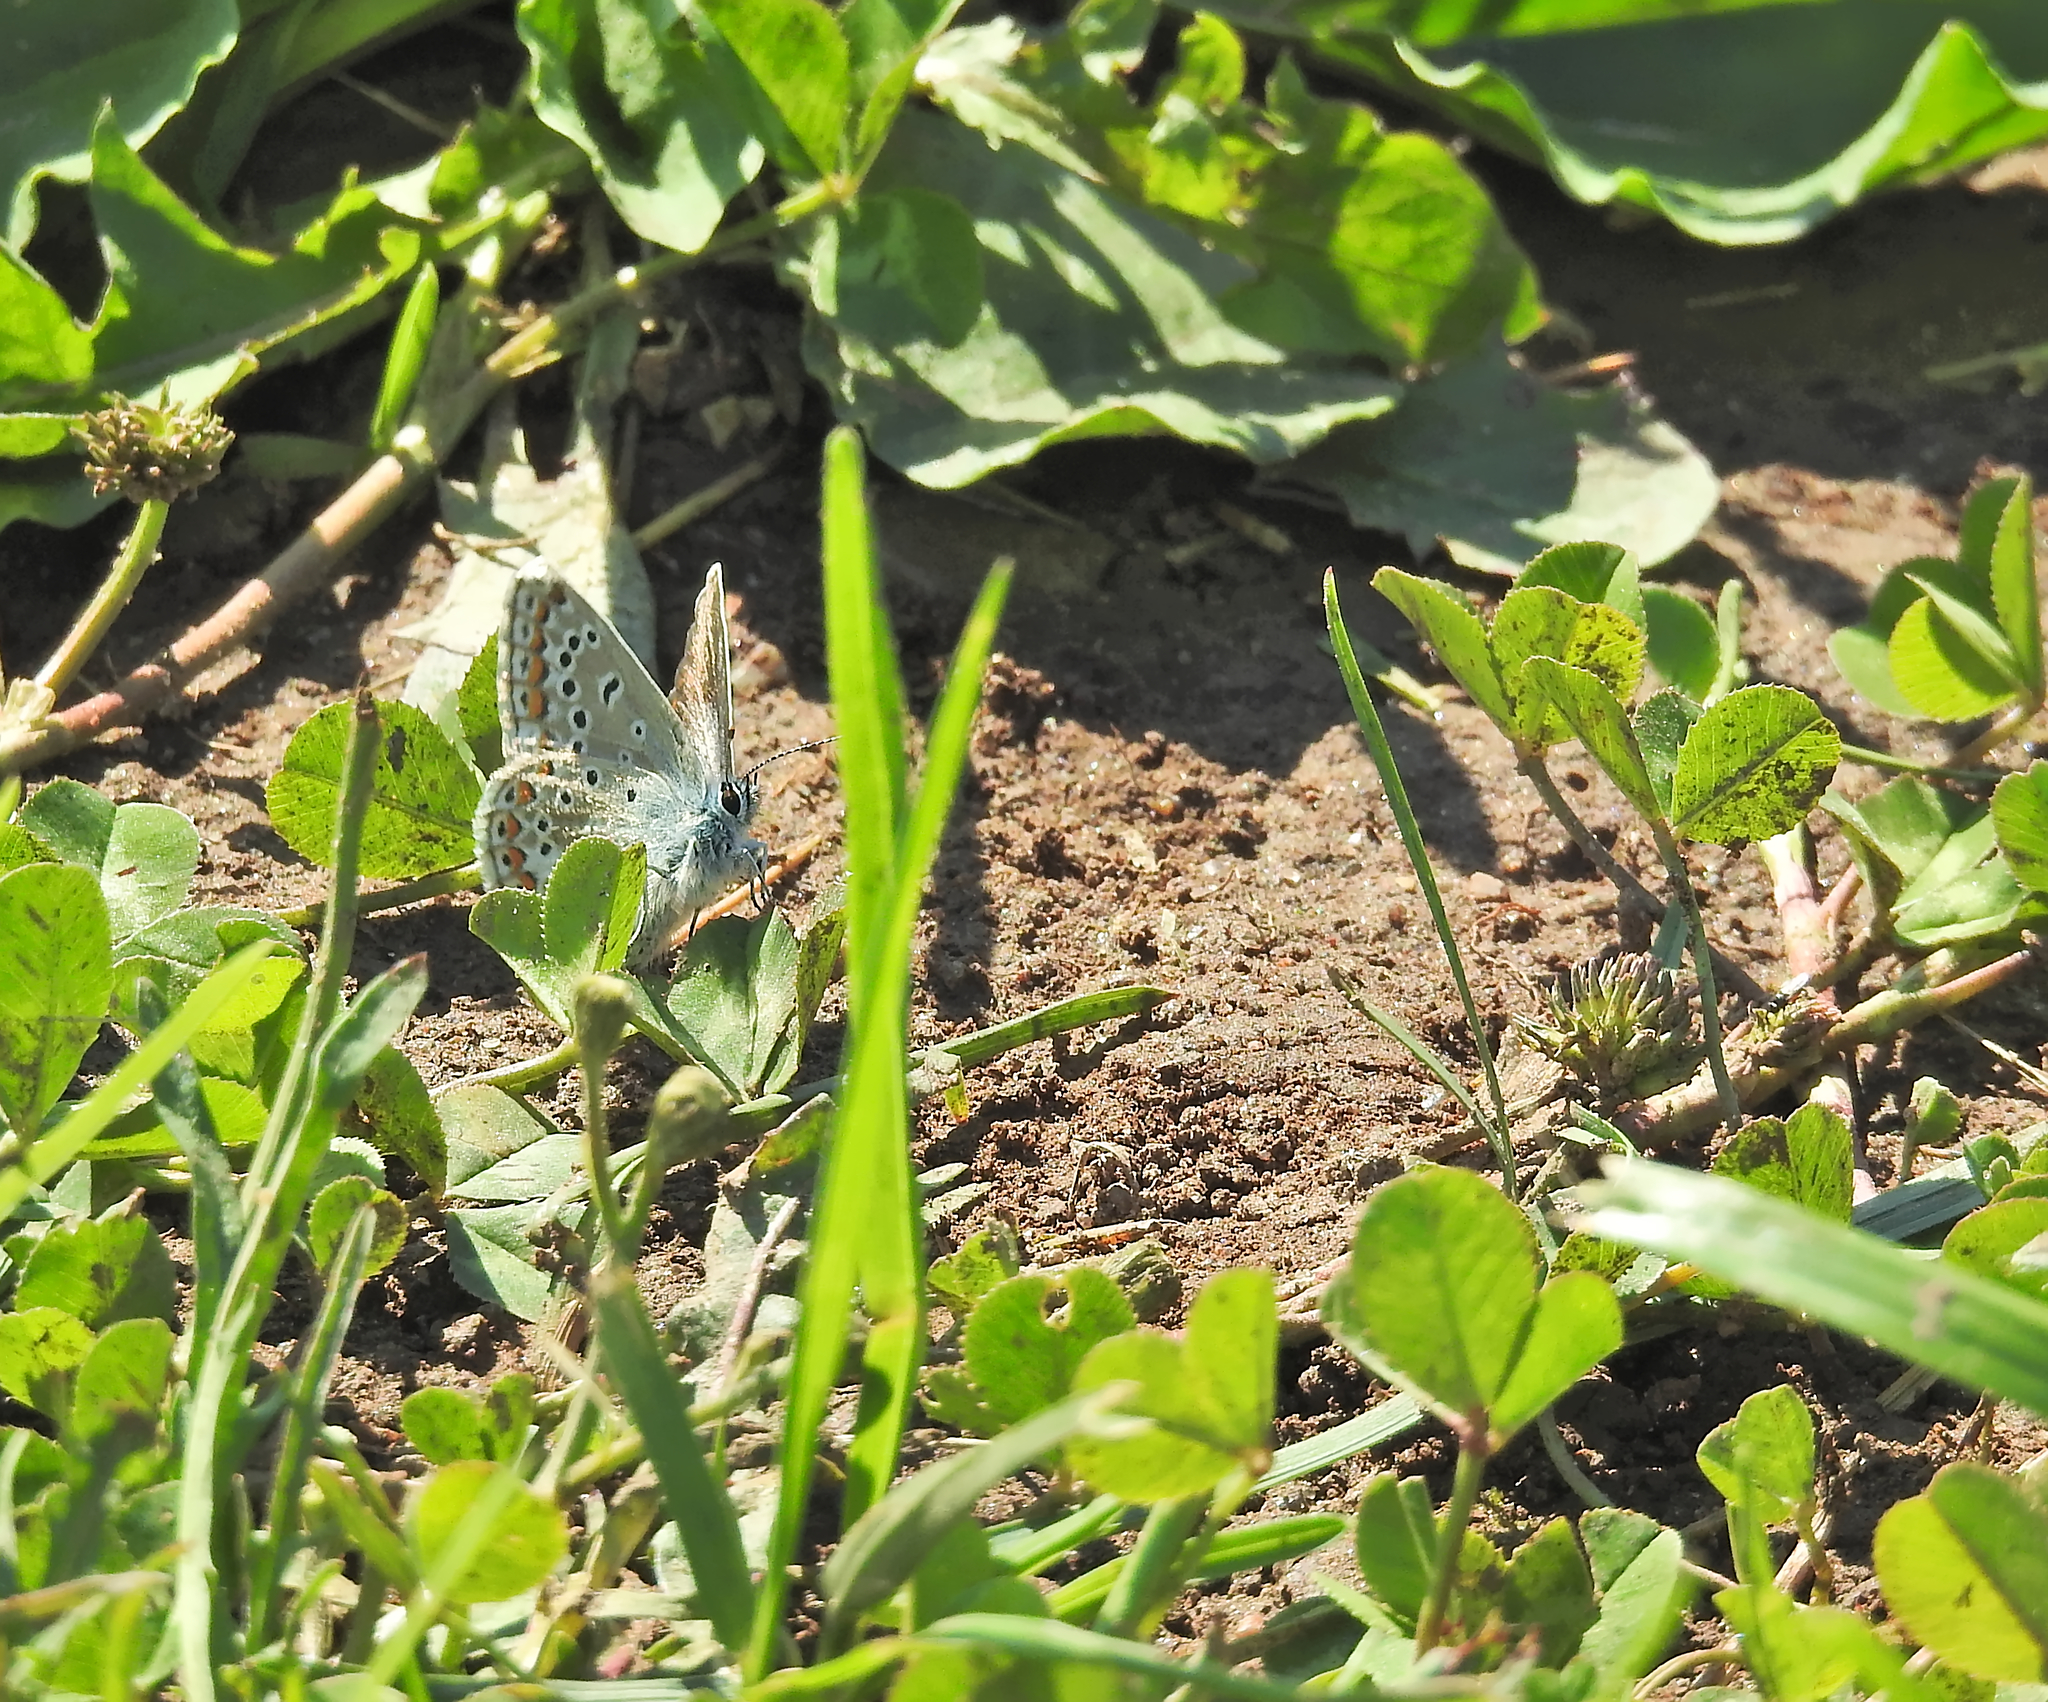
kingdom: Animalia
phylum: Arthropoda
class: Insecta
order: Lepidoptera
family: Lycaenidae
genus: Polyommatus
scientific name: Polyommatus icarus
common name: Common blue
